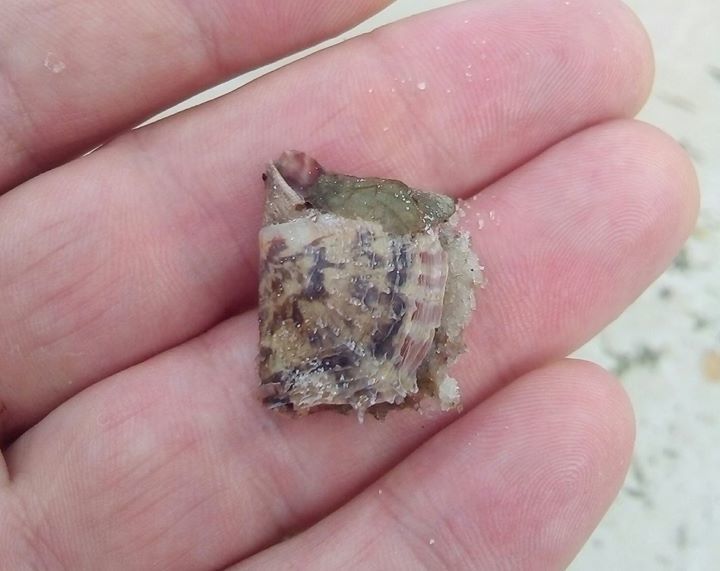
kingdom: Animalia
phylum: Mollusca
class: Bivalvia
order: Ostreida
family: Margaritidae
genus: Pinctada
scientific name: Pinctada imbricata
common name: Atlantic pearl-oyster
